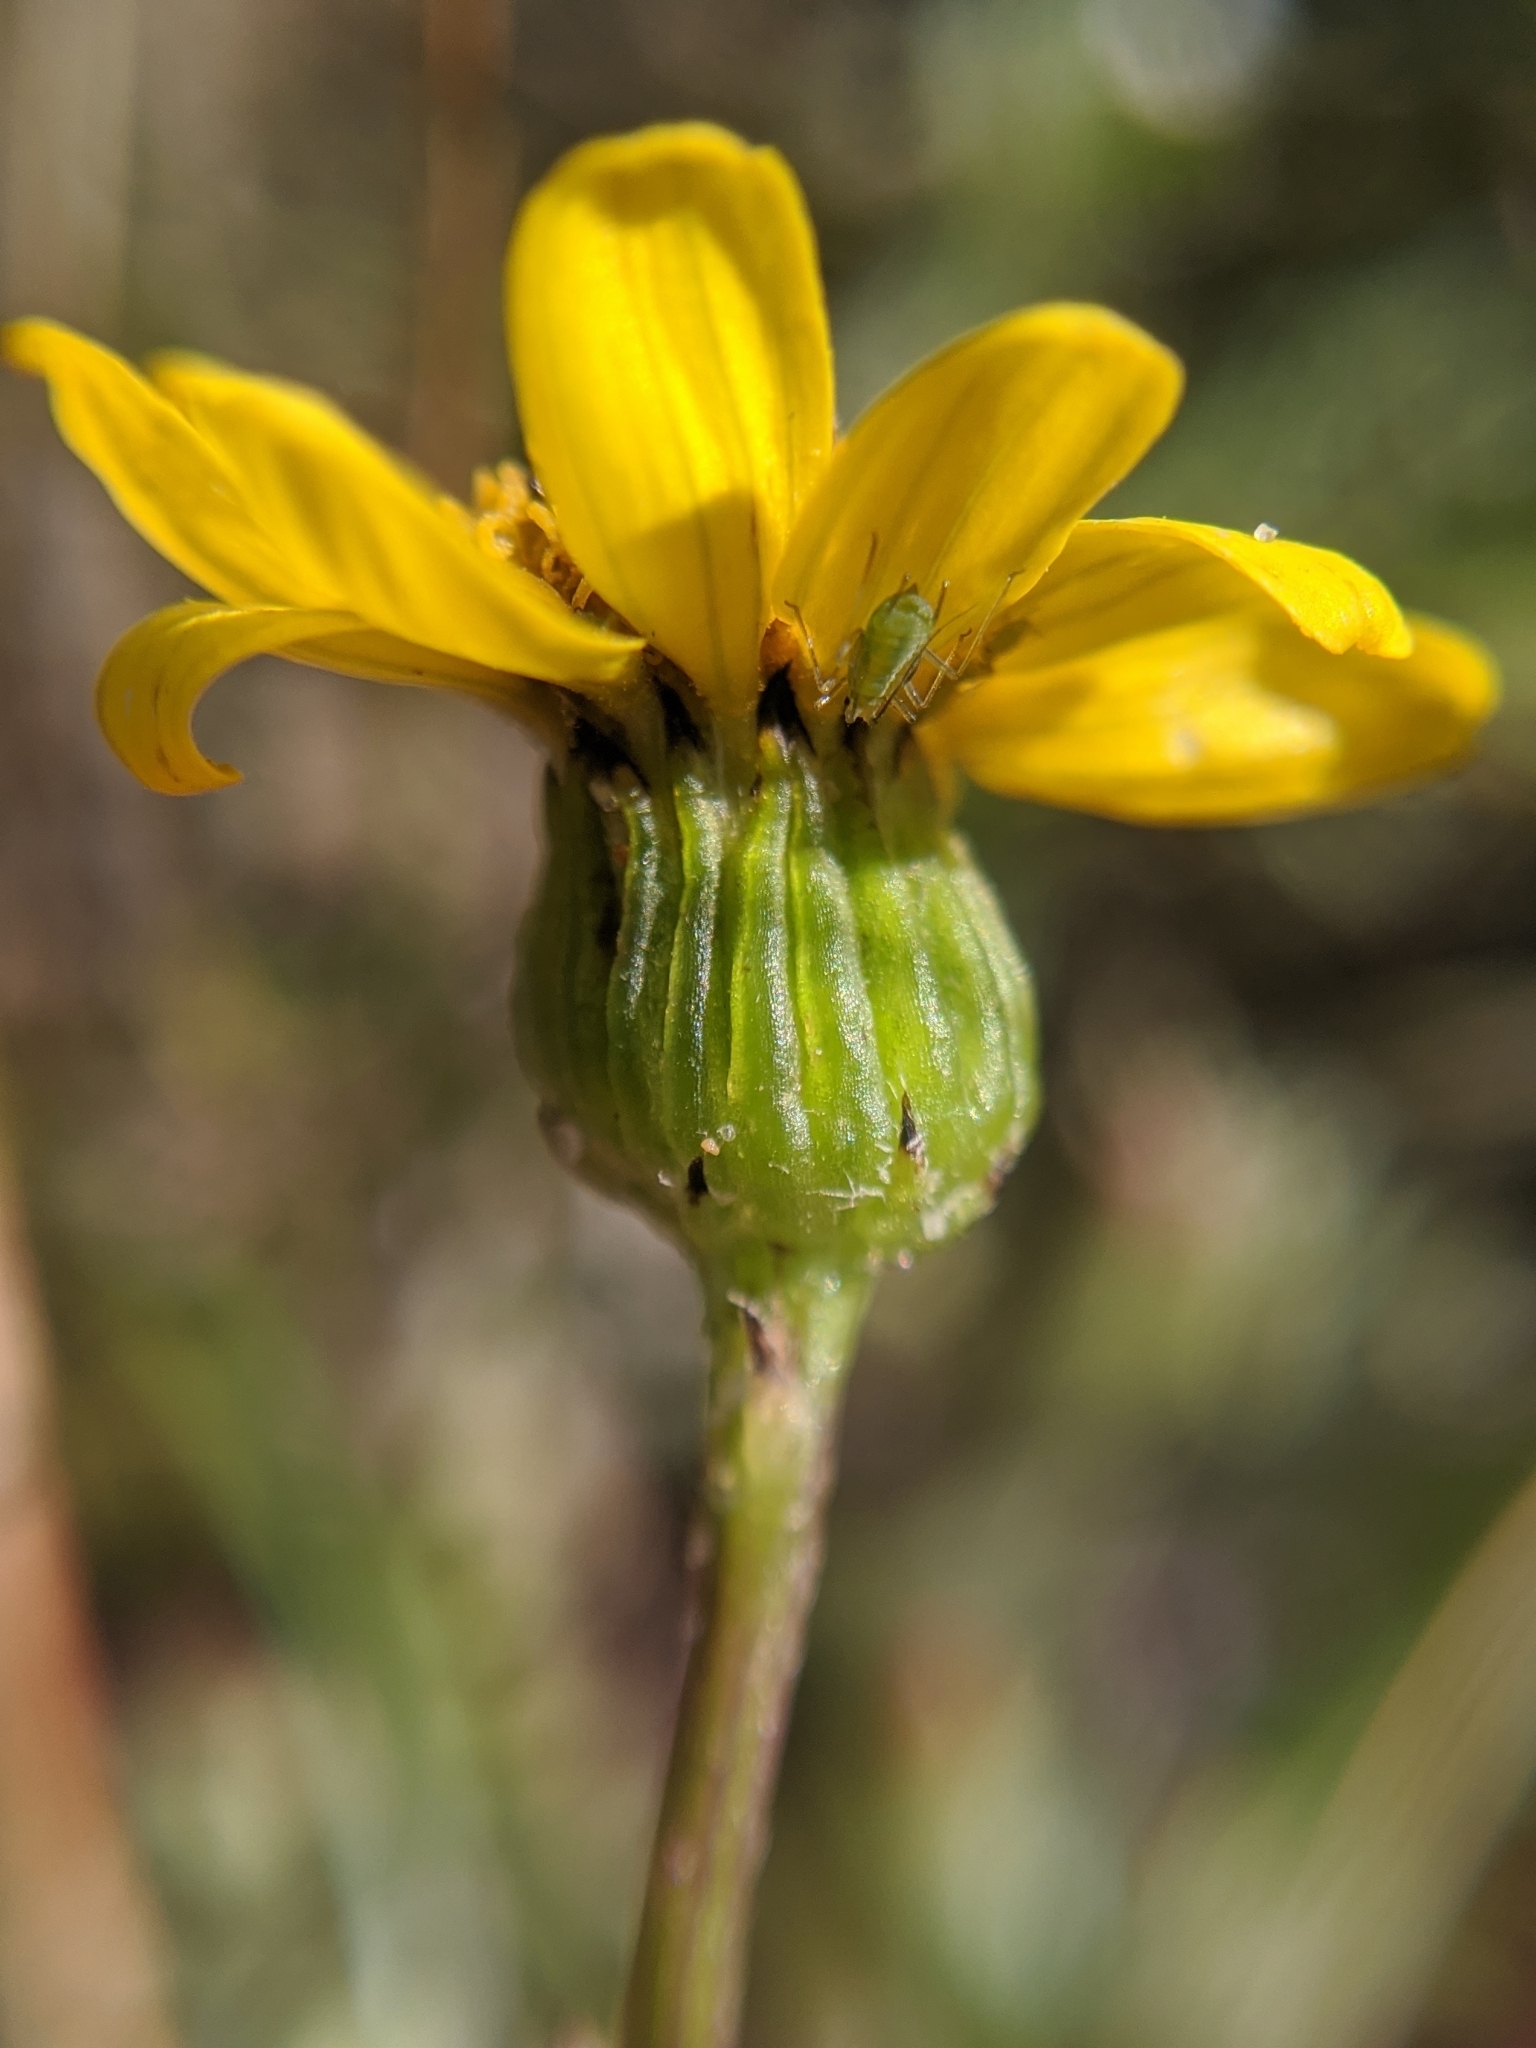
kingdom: Plantae
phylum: Tracheophyta
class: Magnoliopsida
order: Asterales
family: Asteraceae
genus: Senecio
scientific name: Senecio californicus
